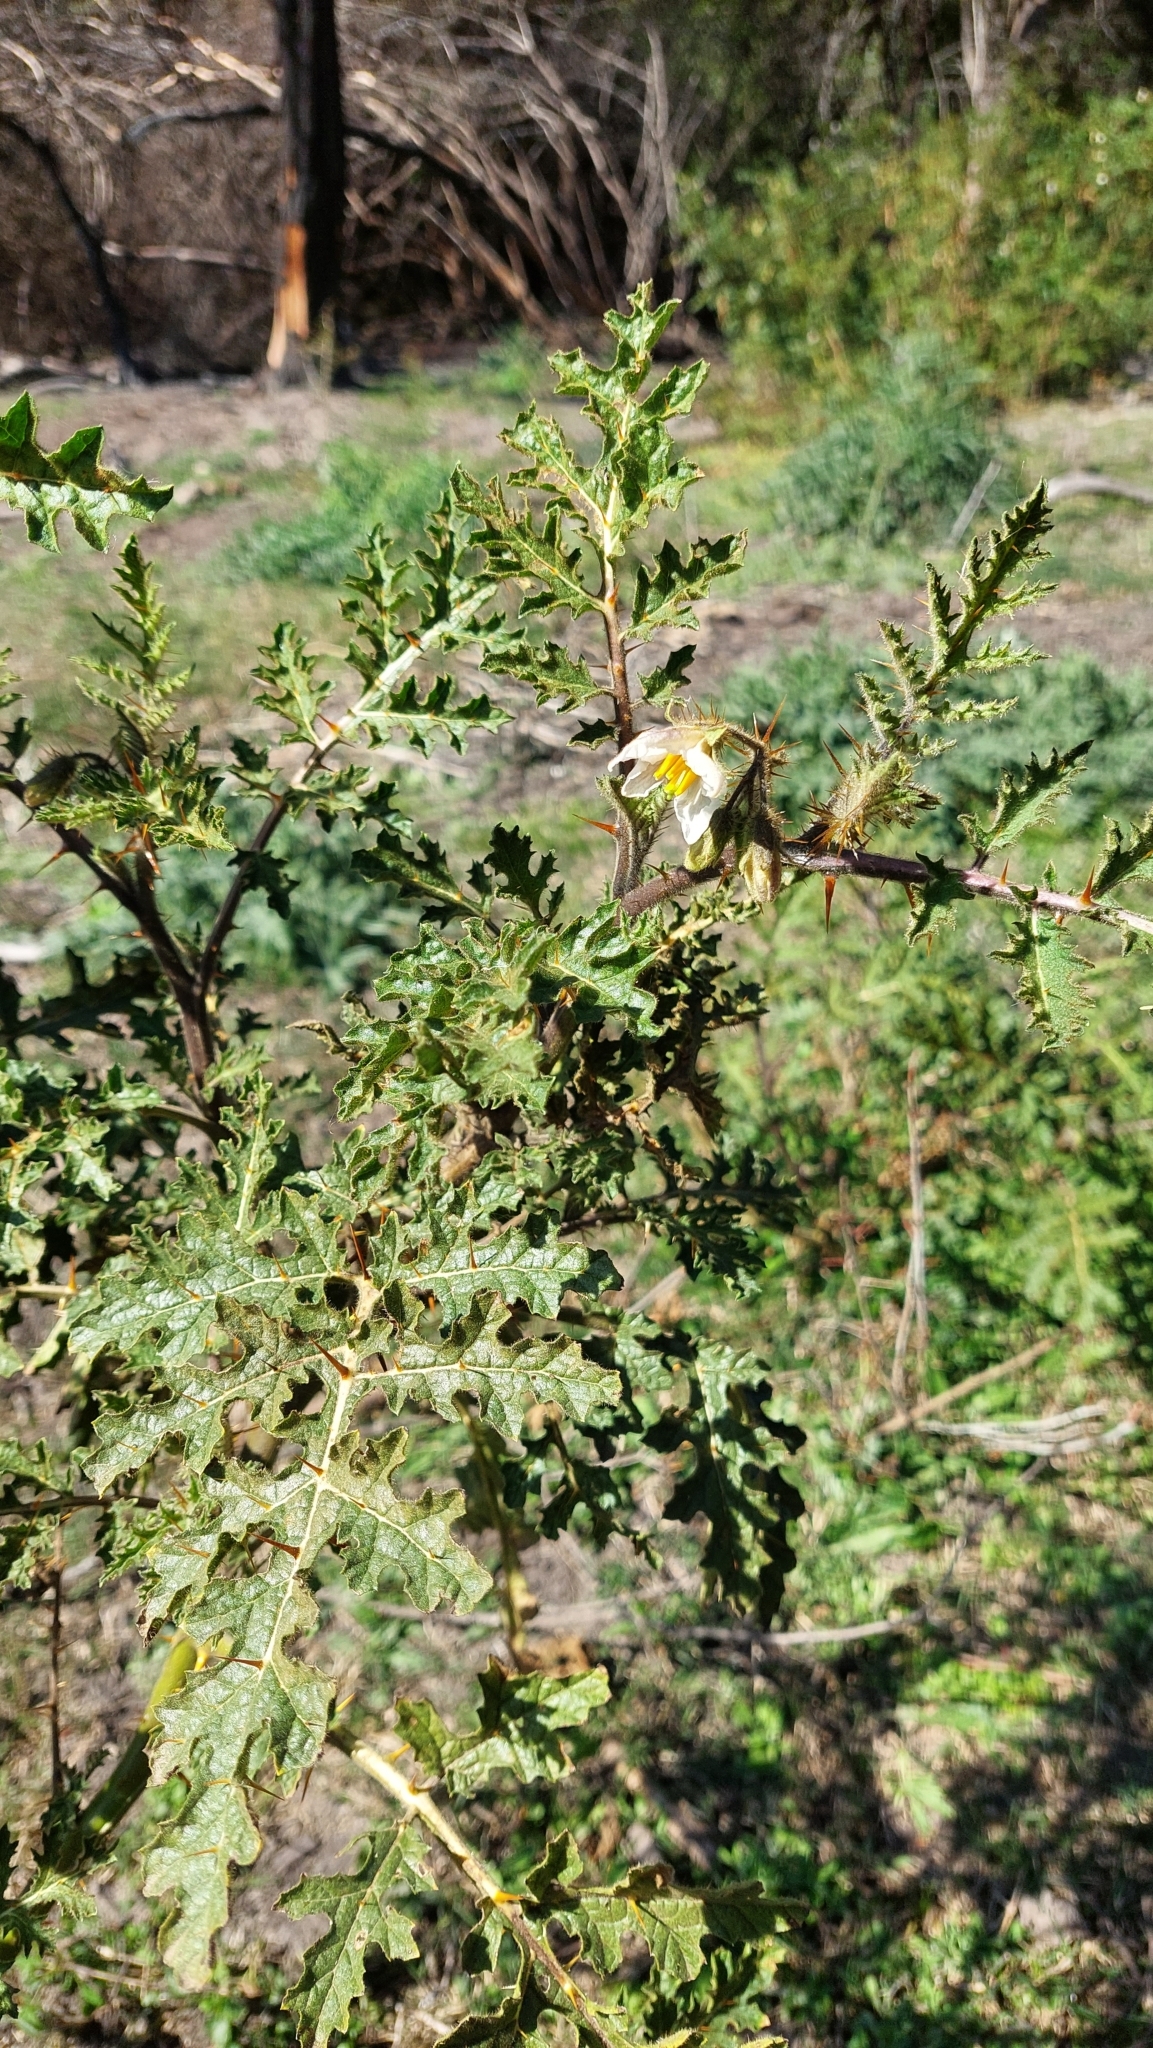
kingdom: Plantae
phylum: Tracheophyta
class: Magnoliopsida
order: Solanales
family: Solanaceae
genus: Solanum
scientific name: Solanum sisymbriifolium
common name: Red buffalo-bur
